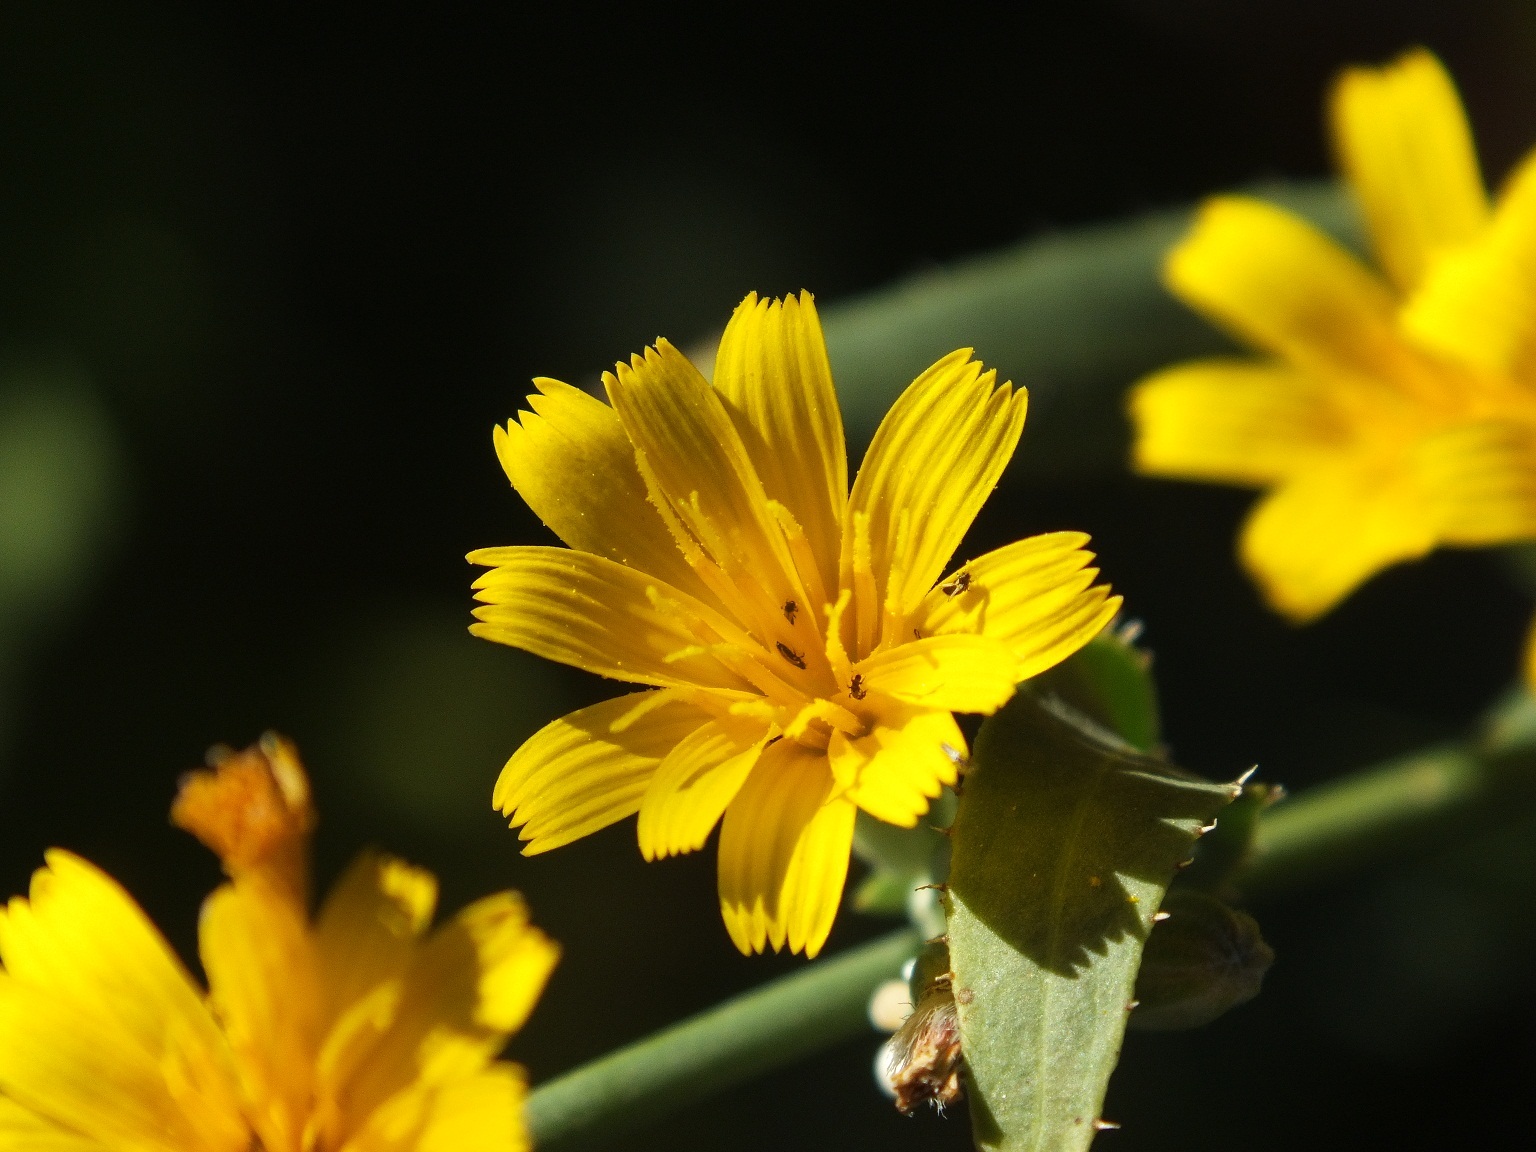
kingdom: Plantae
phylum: Tracheophyta
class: Magnoliopsida
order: Asterales
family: Asteraceae
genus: Chondrilla
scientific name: Chondrilla juncea
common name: Skeleton weed
